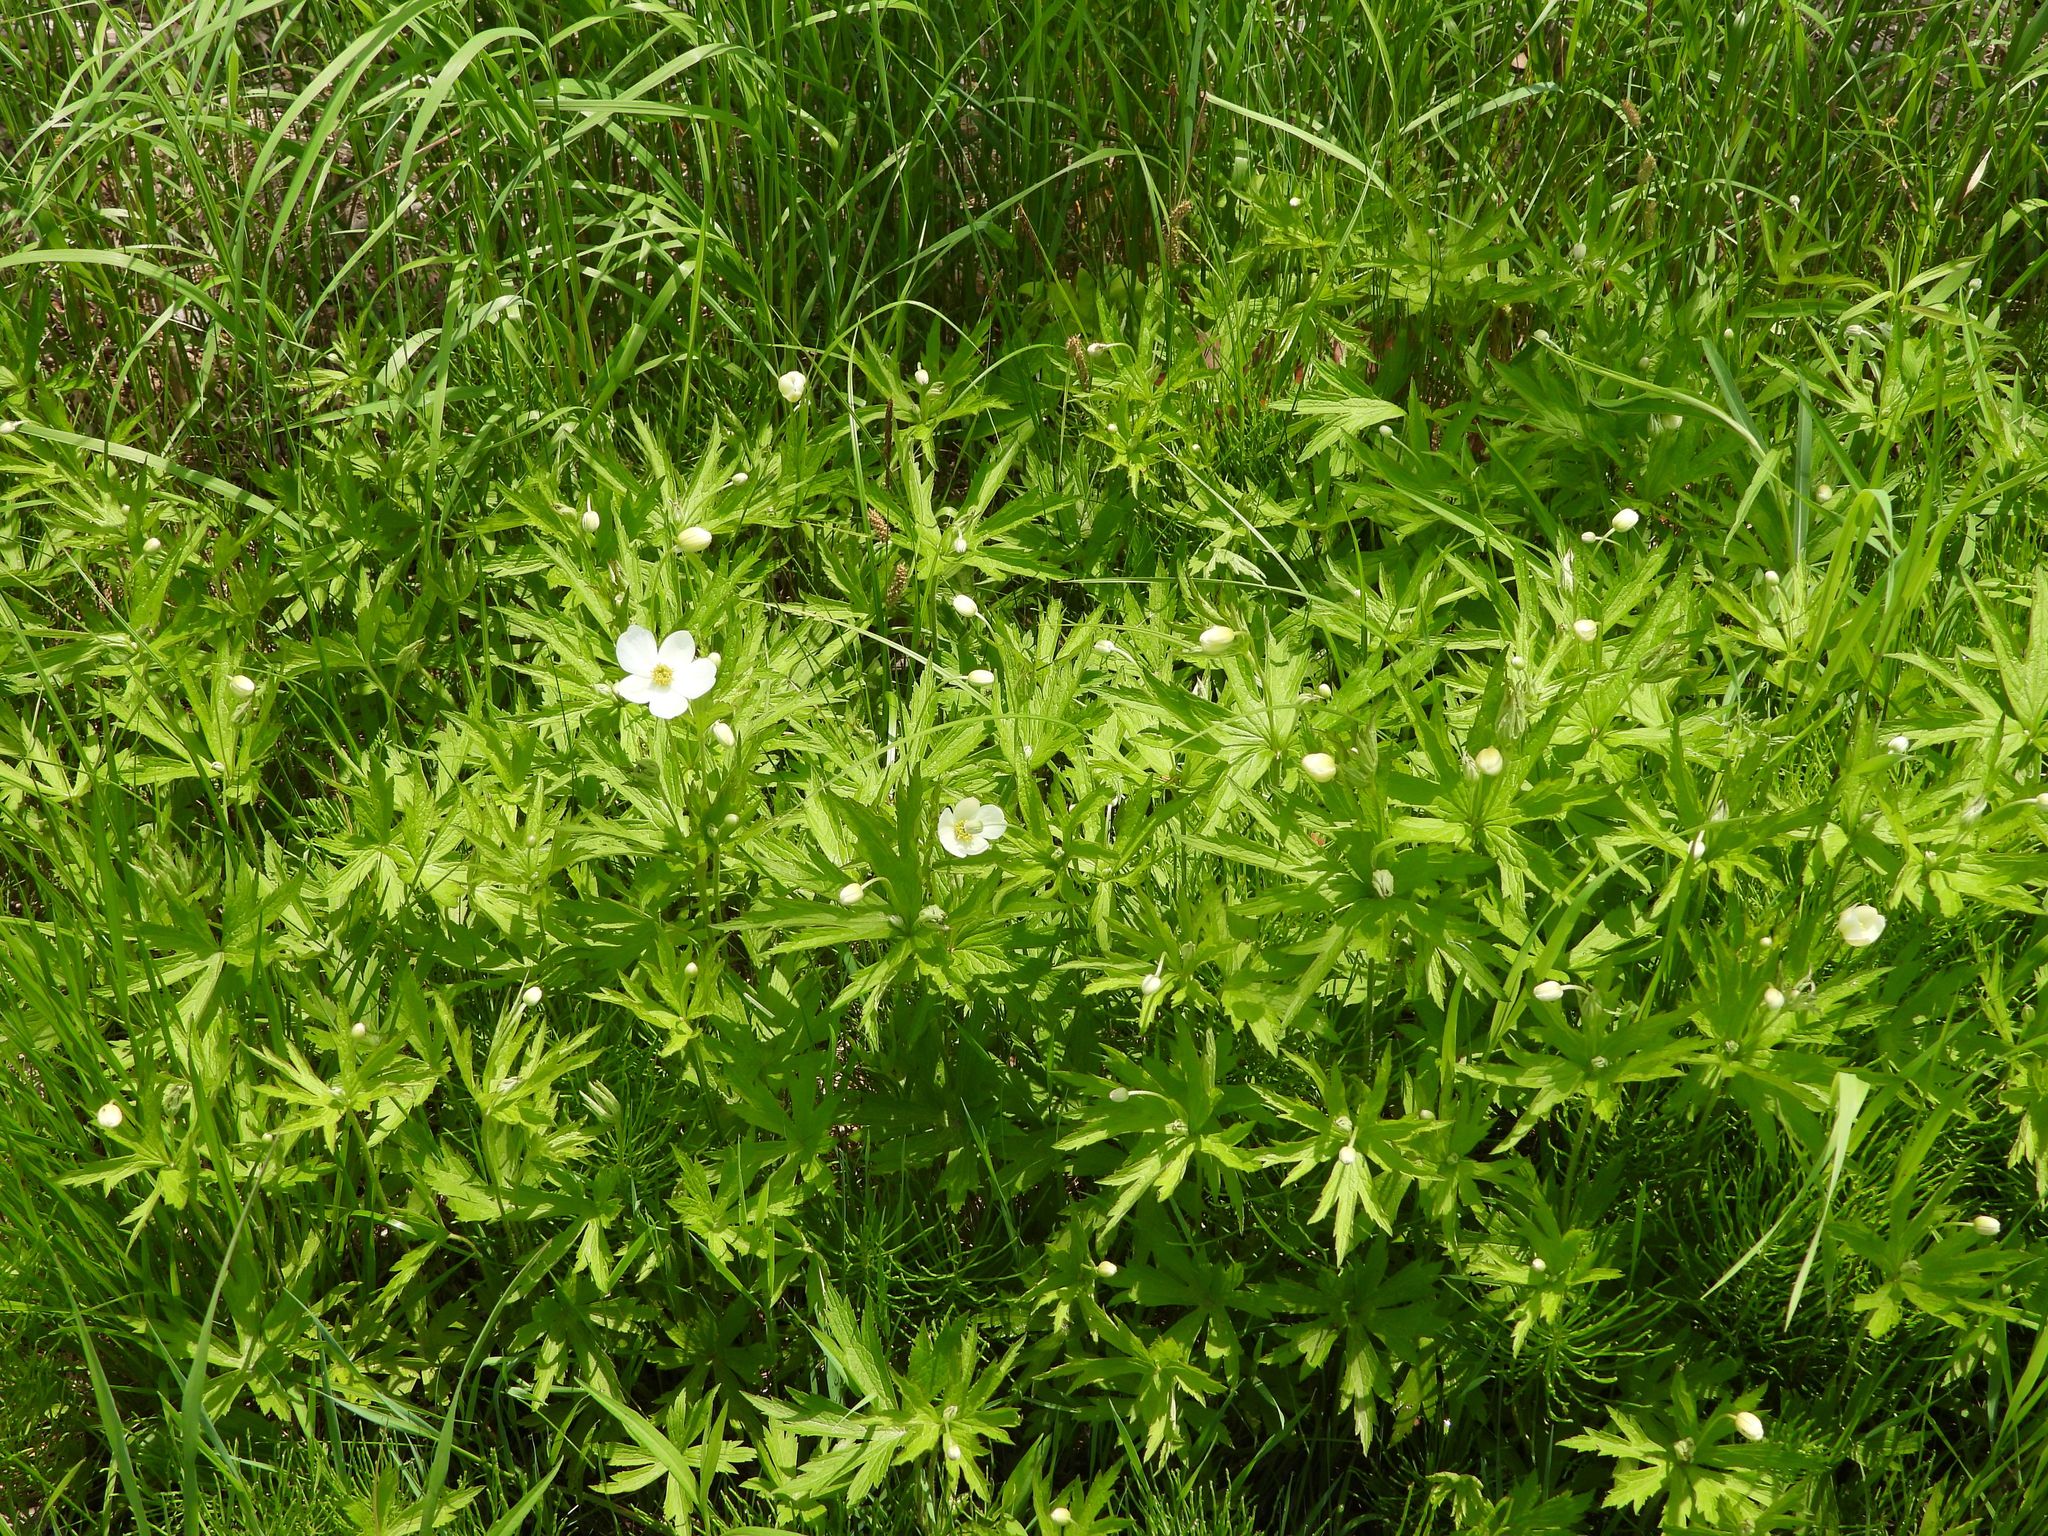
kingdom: Plantae
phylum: Tracheophyta
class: Magnoliopsida
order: Ranunculales
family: Ranunculaceae
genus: Anemonastrum
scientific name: Anemonastrum canadense
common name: Canada anemone
